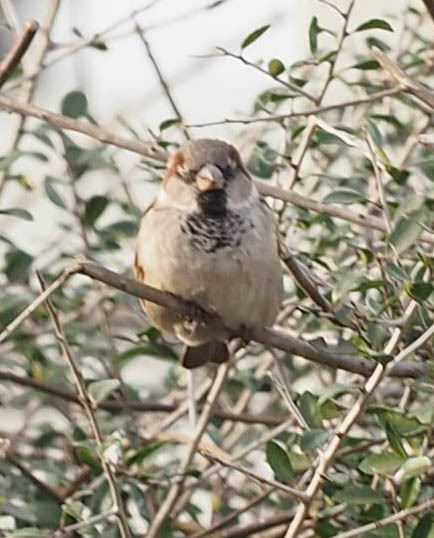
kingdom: Animalia
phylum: Chordata
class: Aves
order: Passeriformes
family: Passeridae
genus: Passer
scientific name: Passer domesticus
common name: House sparrow
